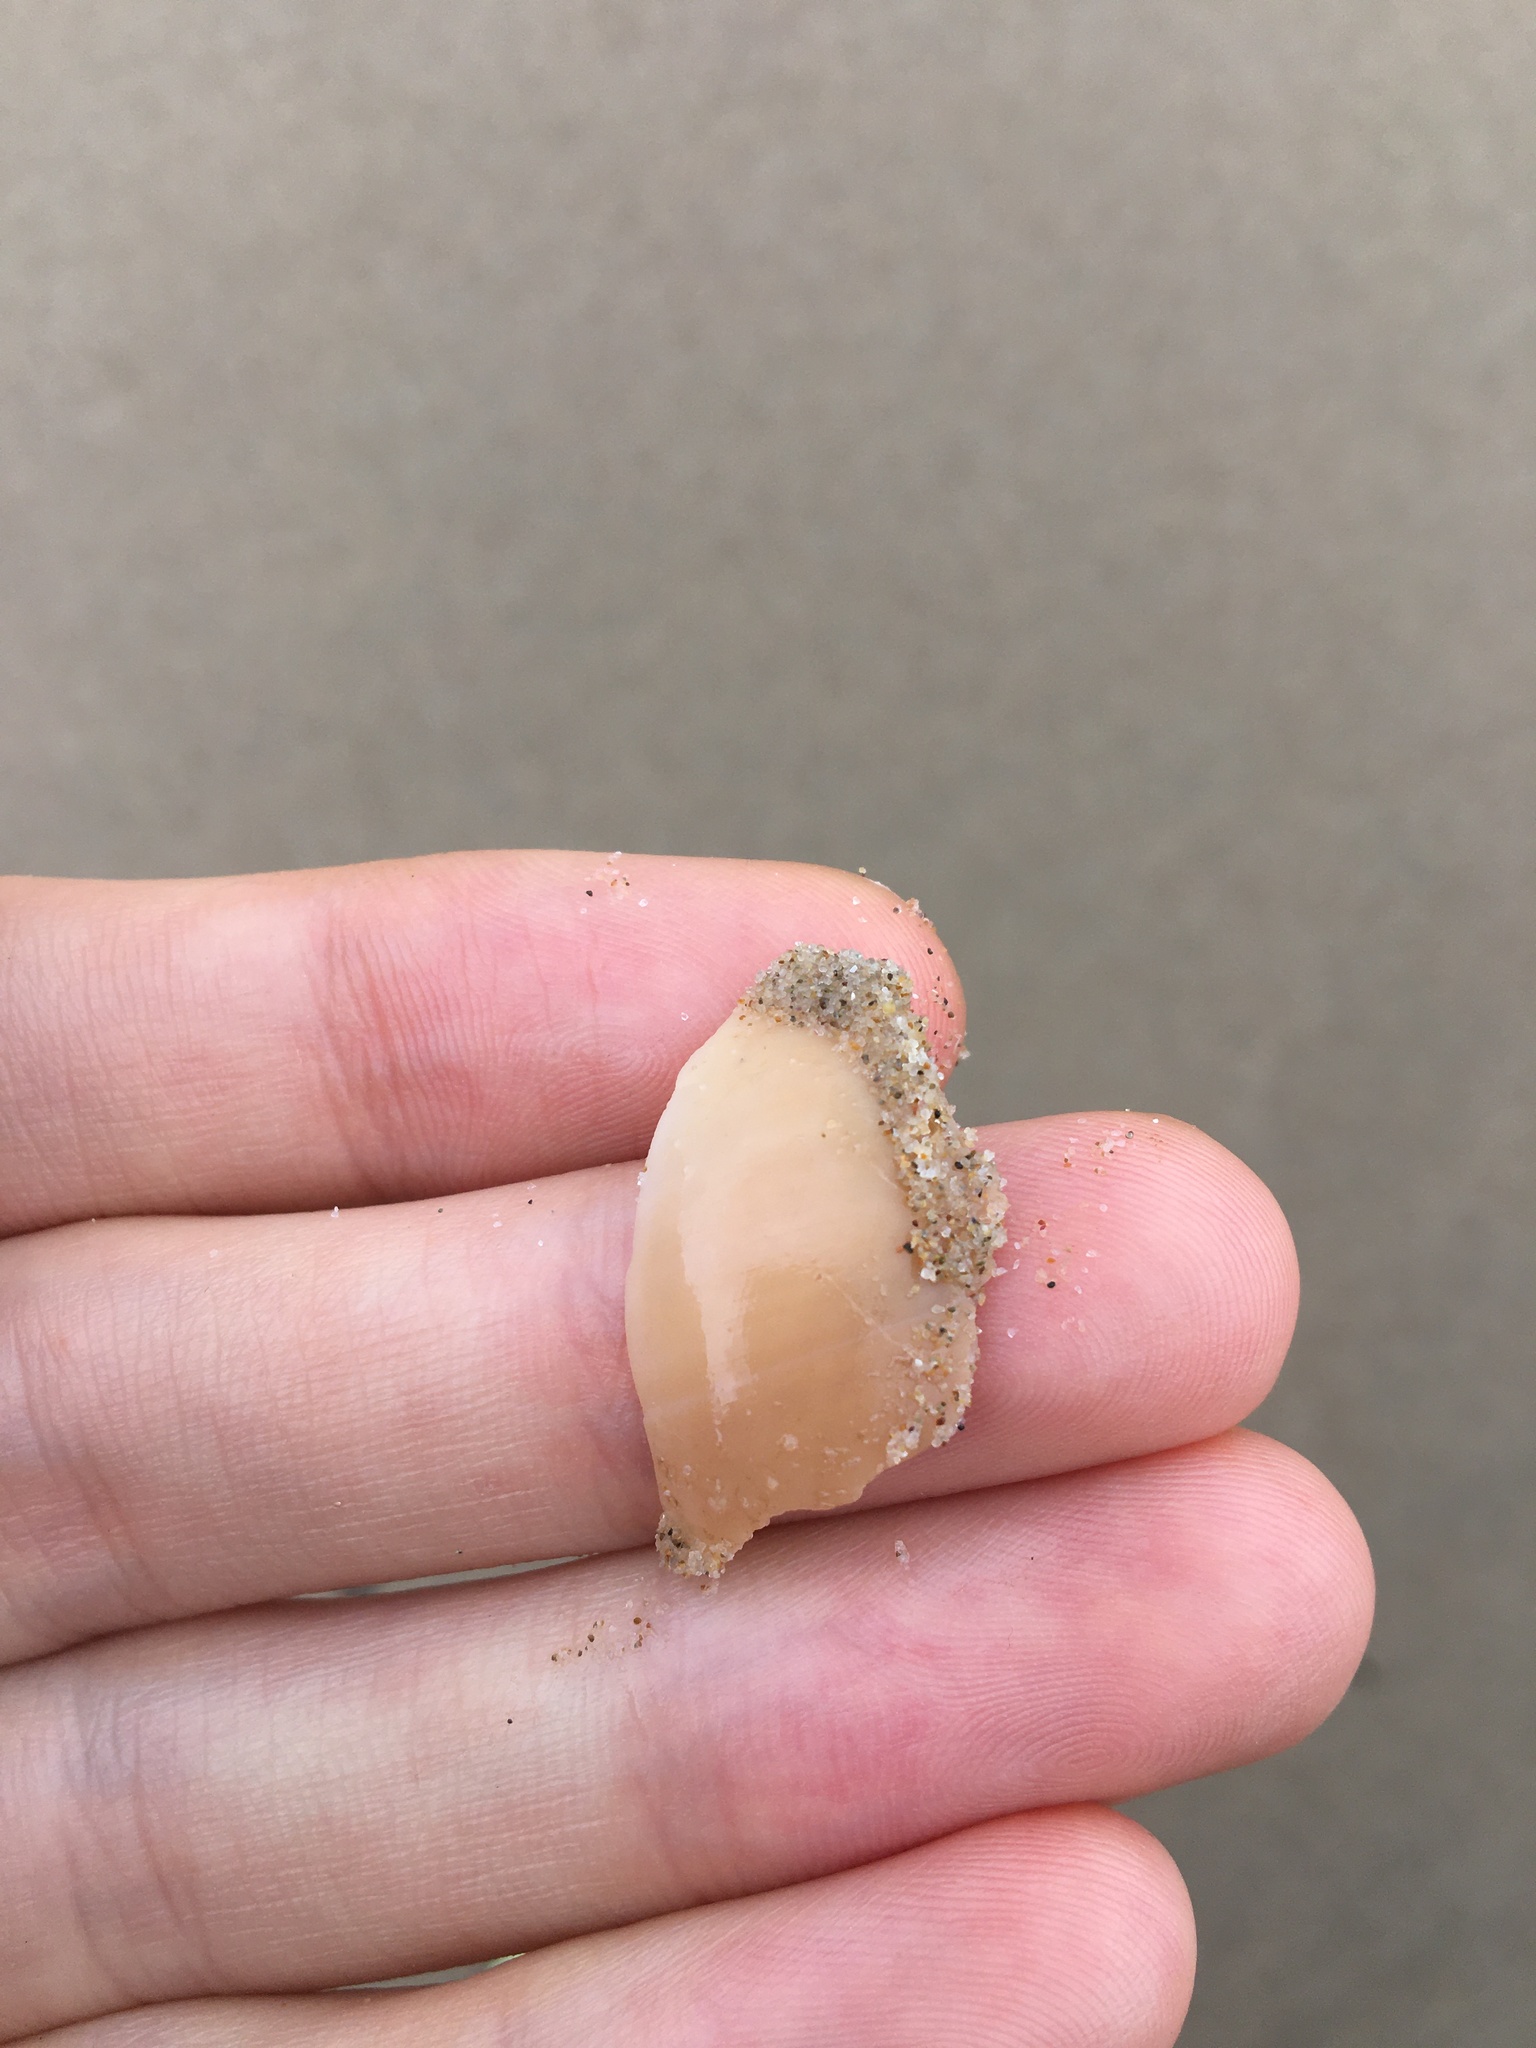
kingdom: Animalia
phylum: Mollusca
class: Gastropoda
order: Littorinimorpha
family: Naticidae
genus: Neverita
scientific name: Neverita didyma
